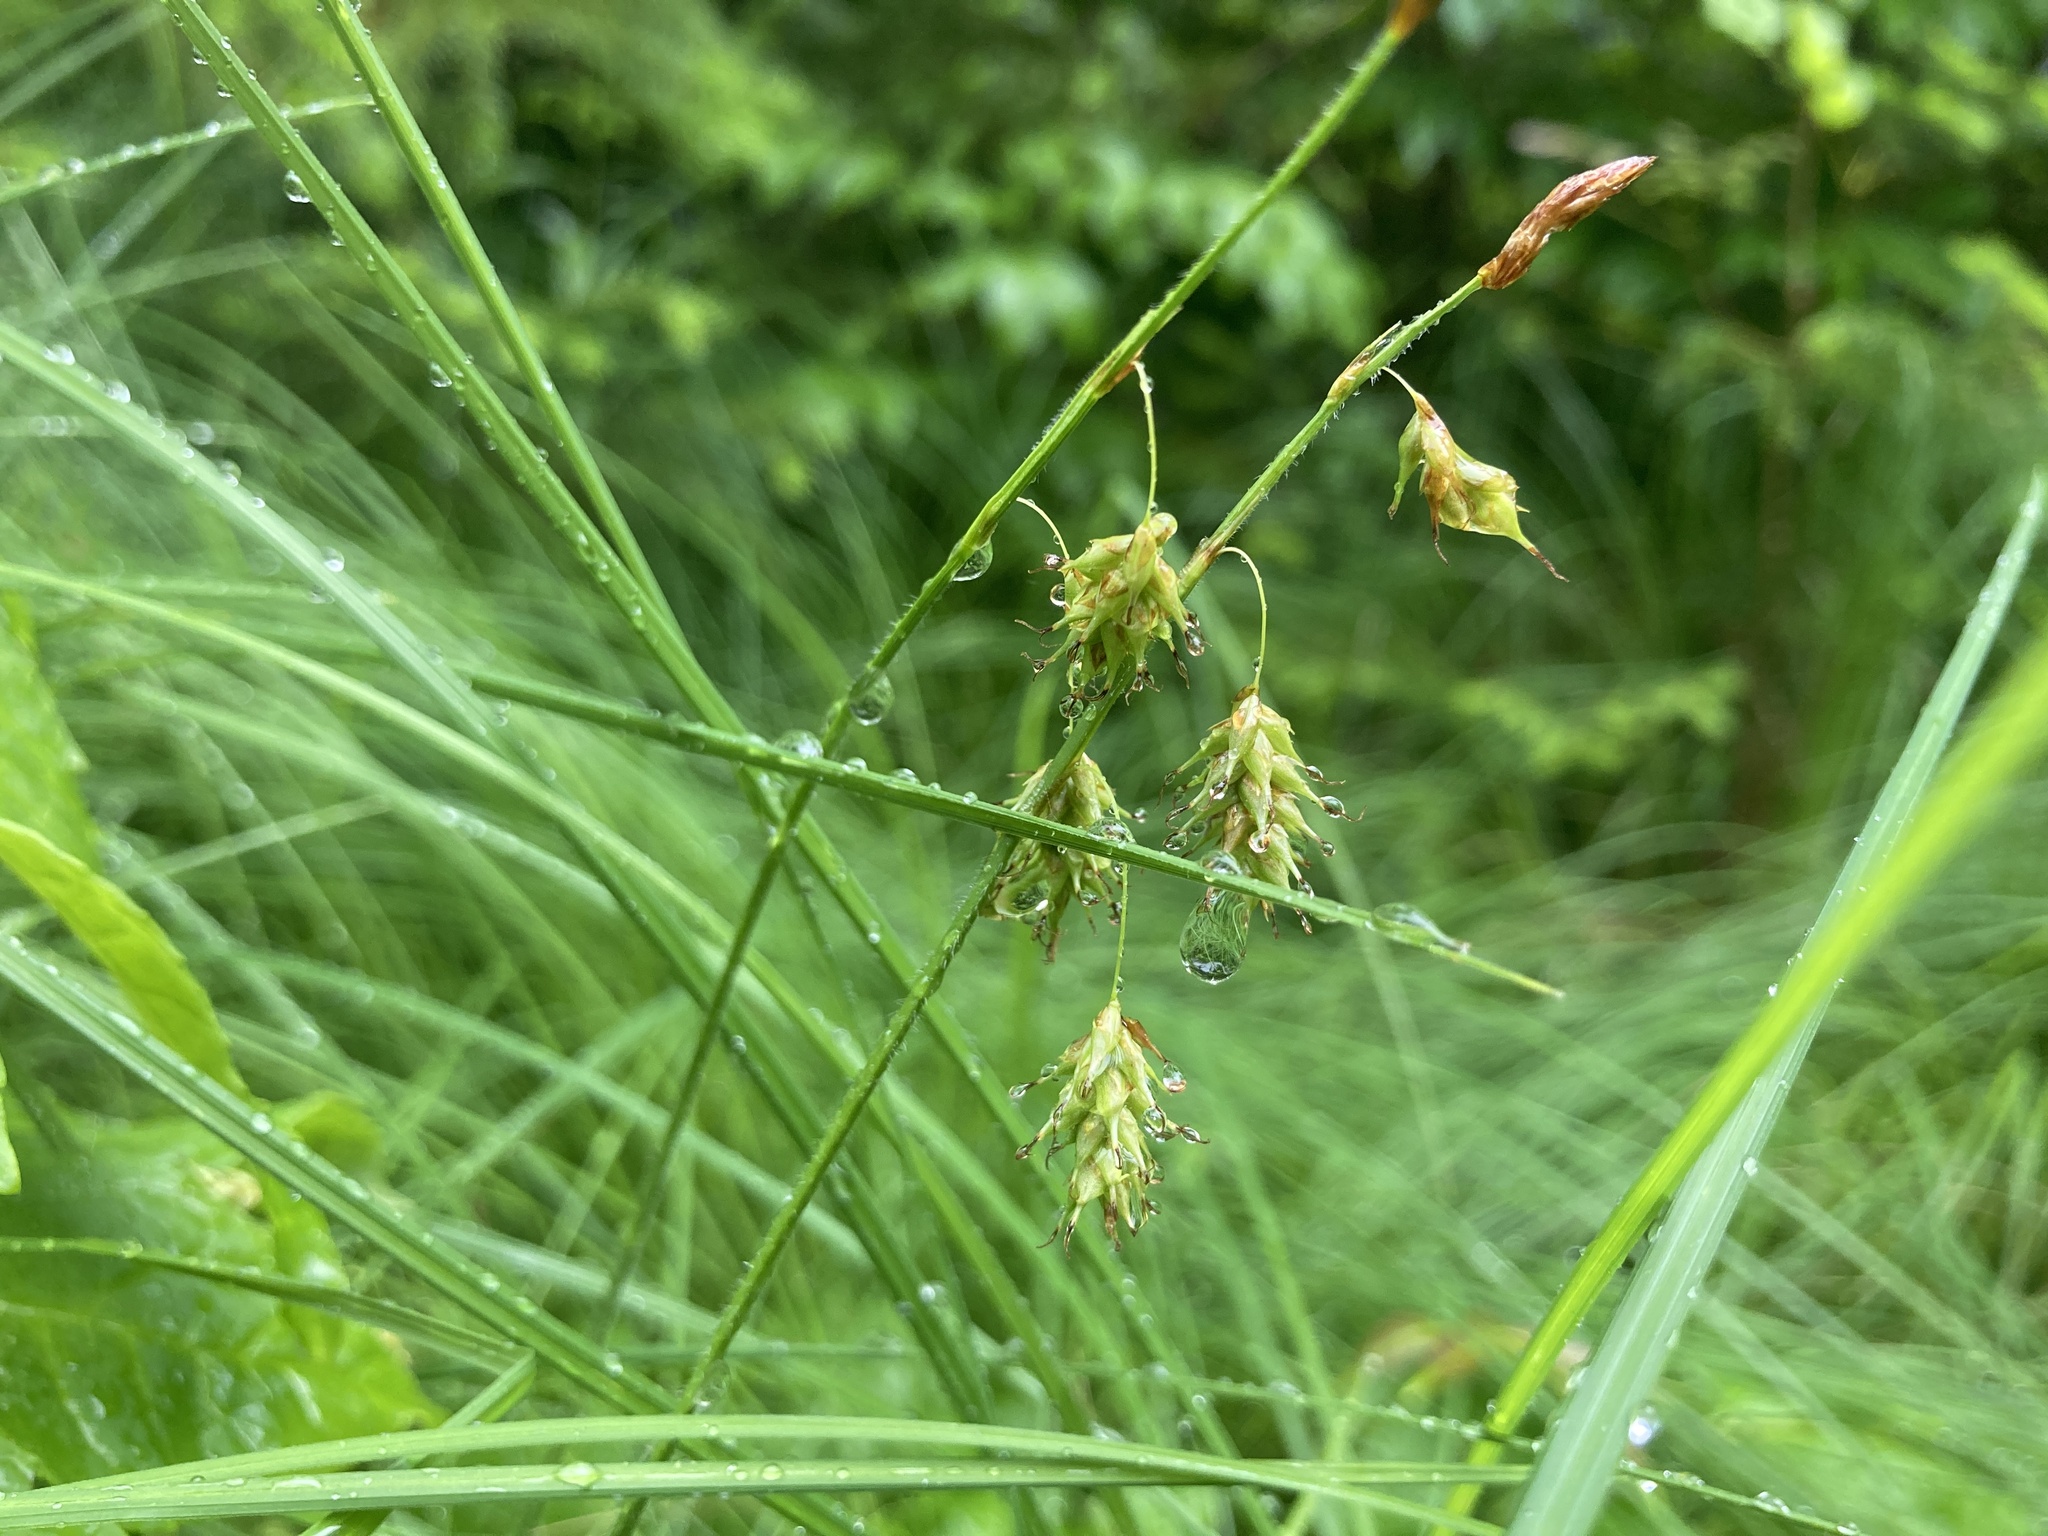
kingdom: Plantae
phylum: Tracheophyta
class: Liliopsida
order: Poales
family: Cyperaceae
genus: Carex
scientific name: Carex castanea
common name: Chestnut sedge
